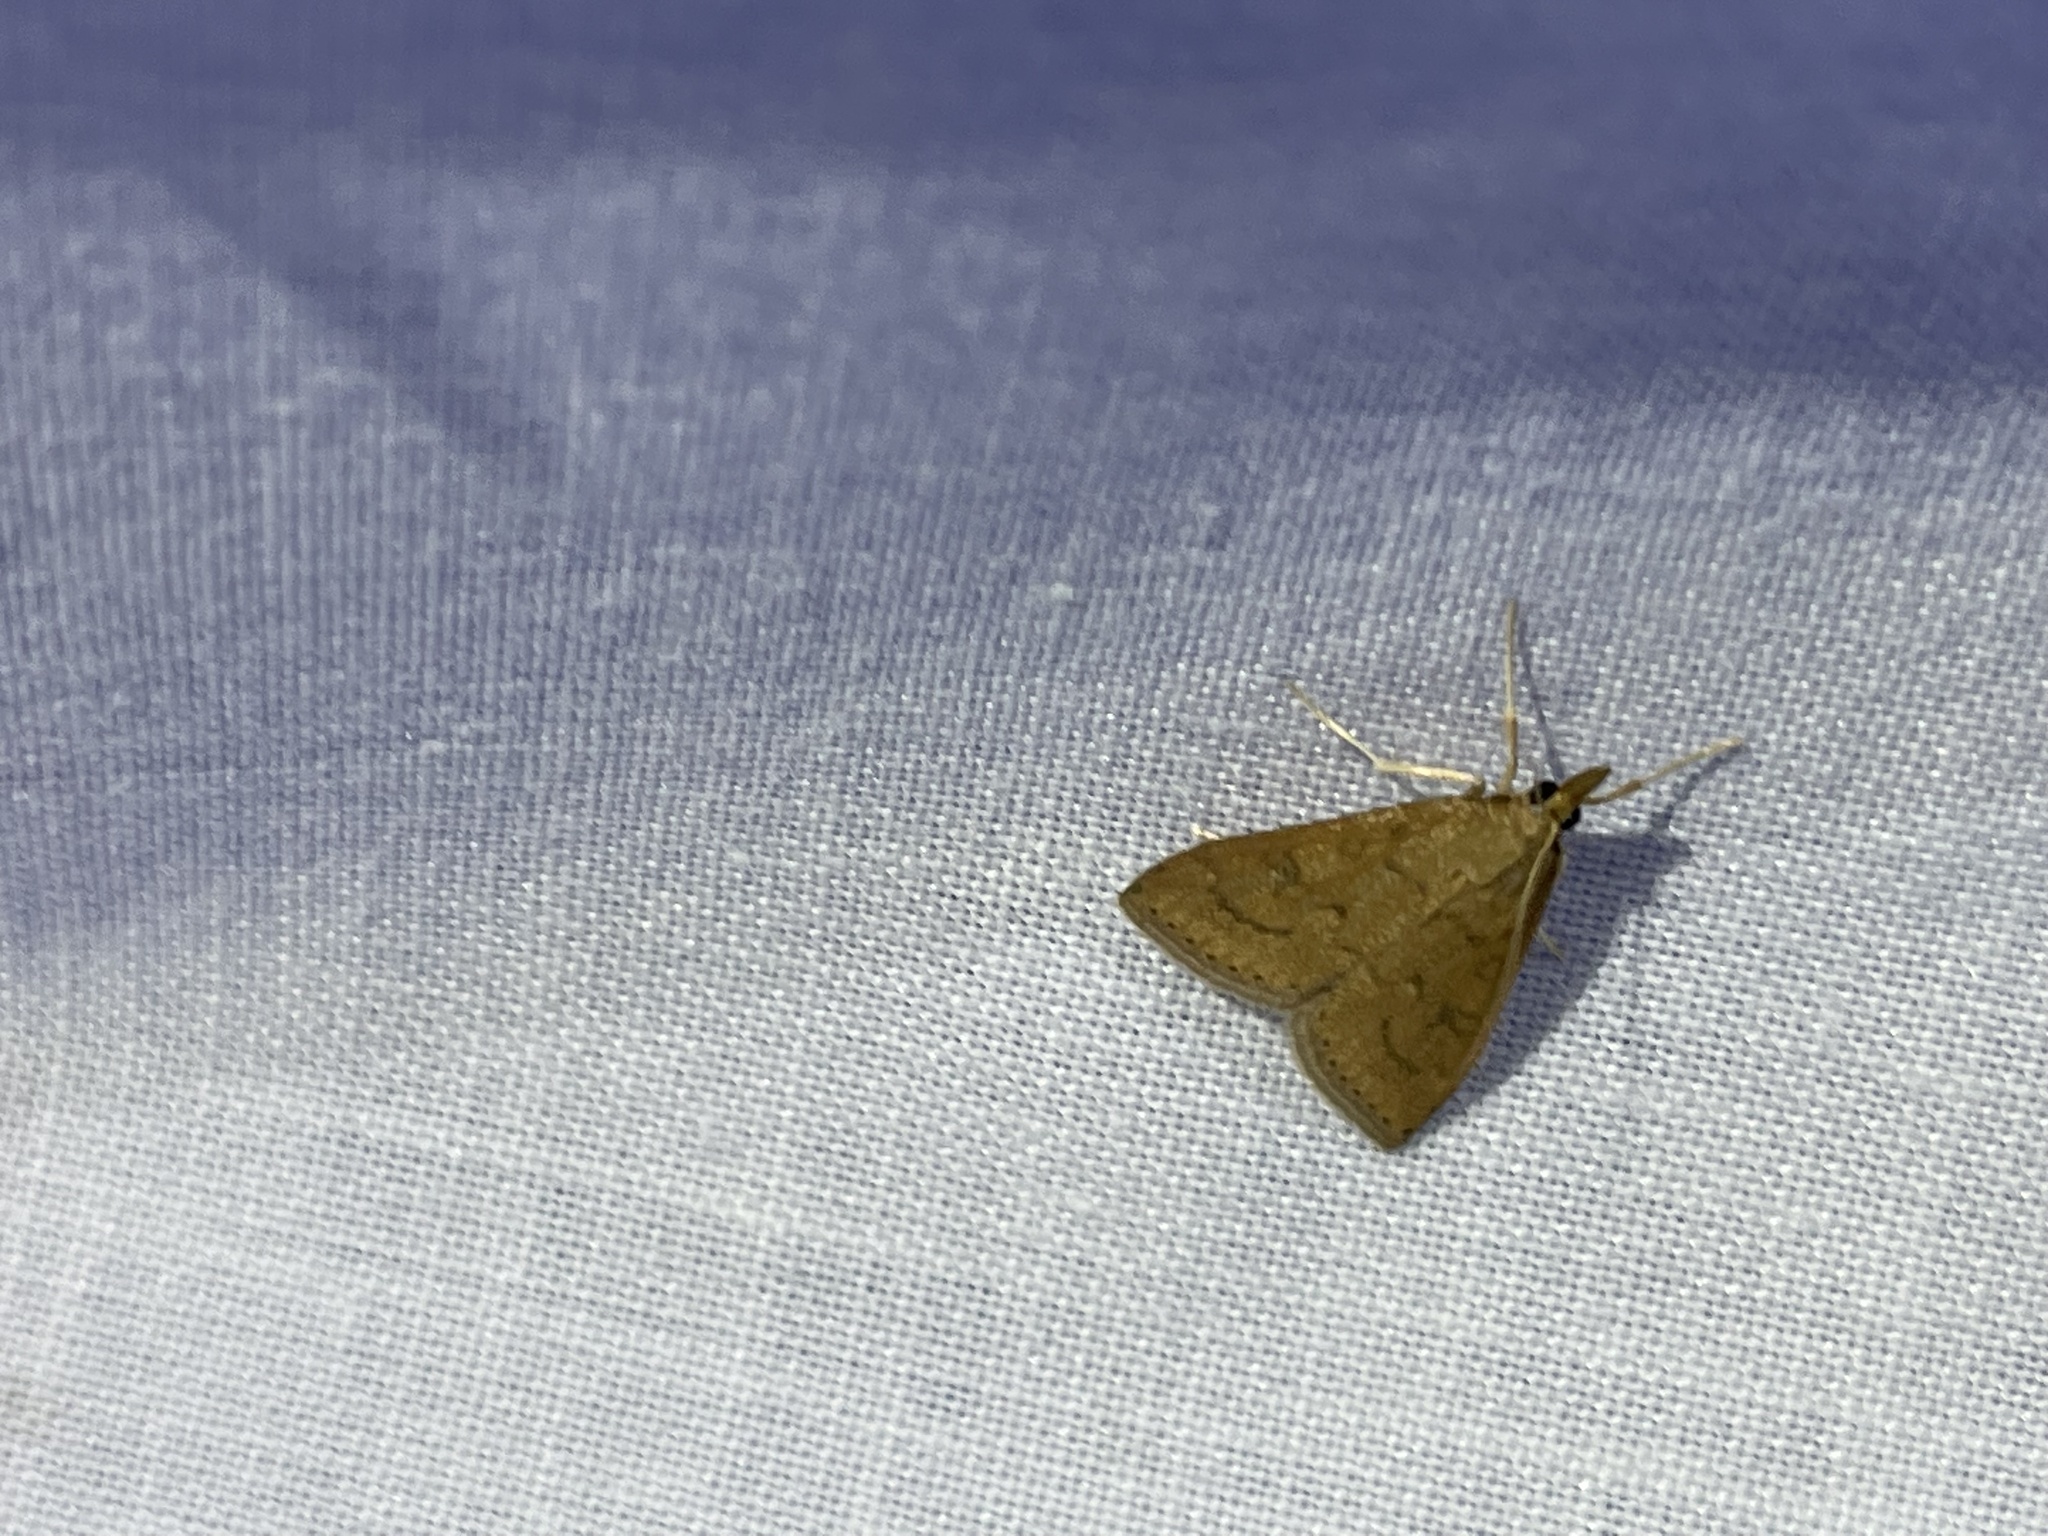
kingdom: Animalia
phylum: Arthropoda
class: Insecta
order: Lepidoptera
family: Crambidae
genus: Udea
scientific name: Udea rubigalis
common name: Celery leaftier moth
